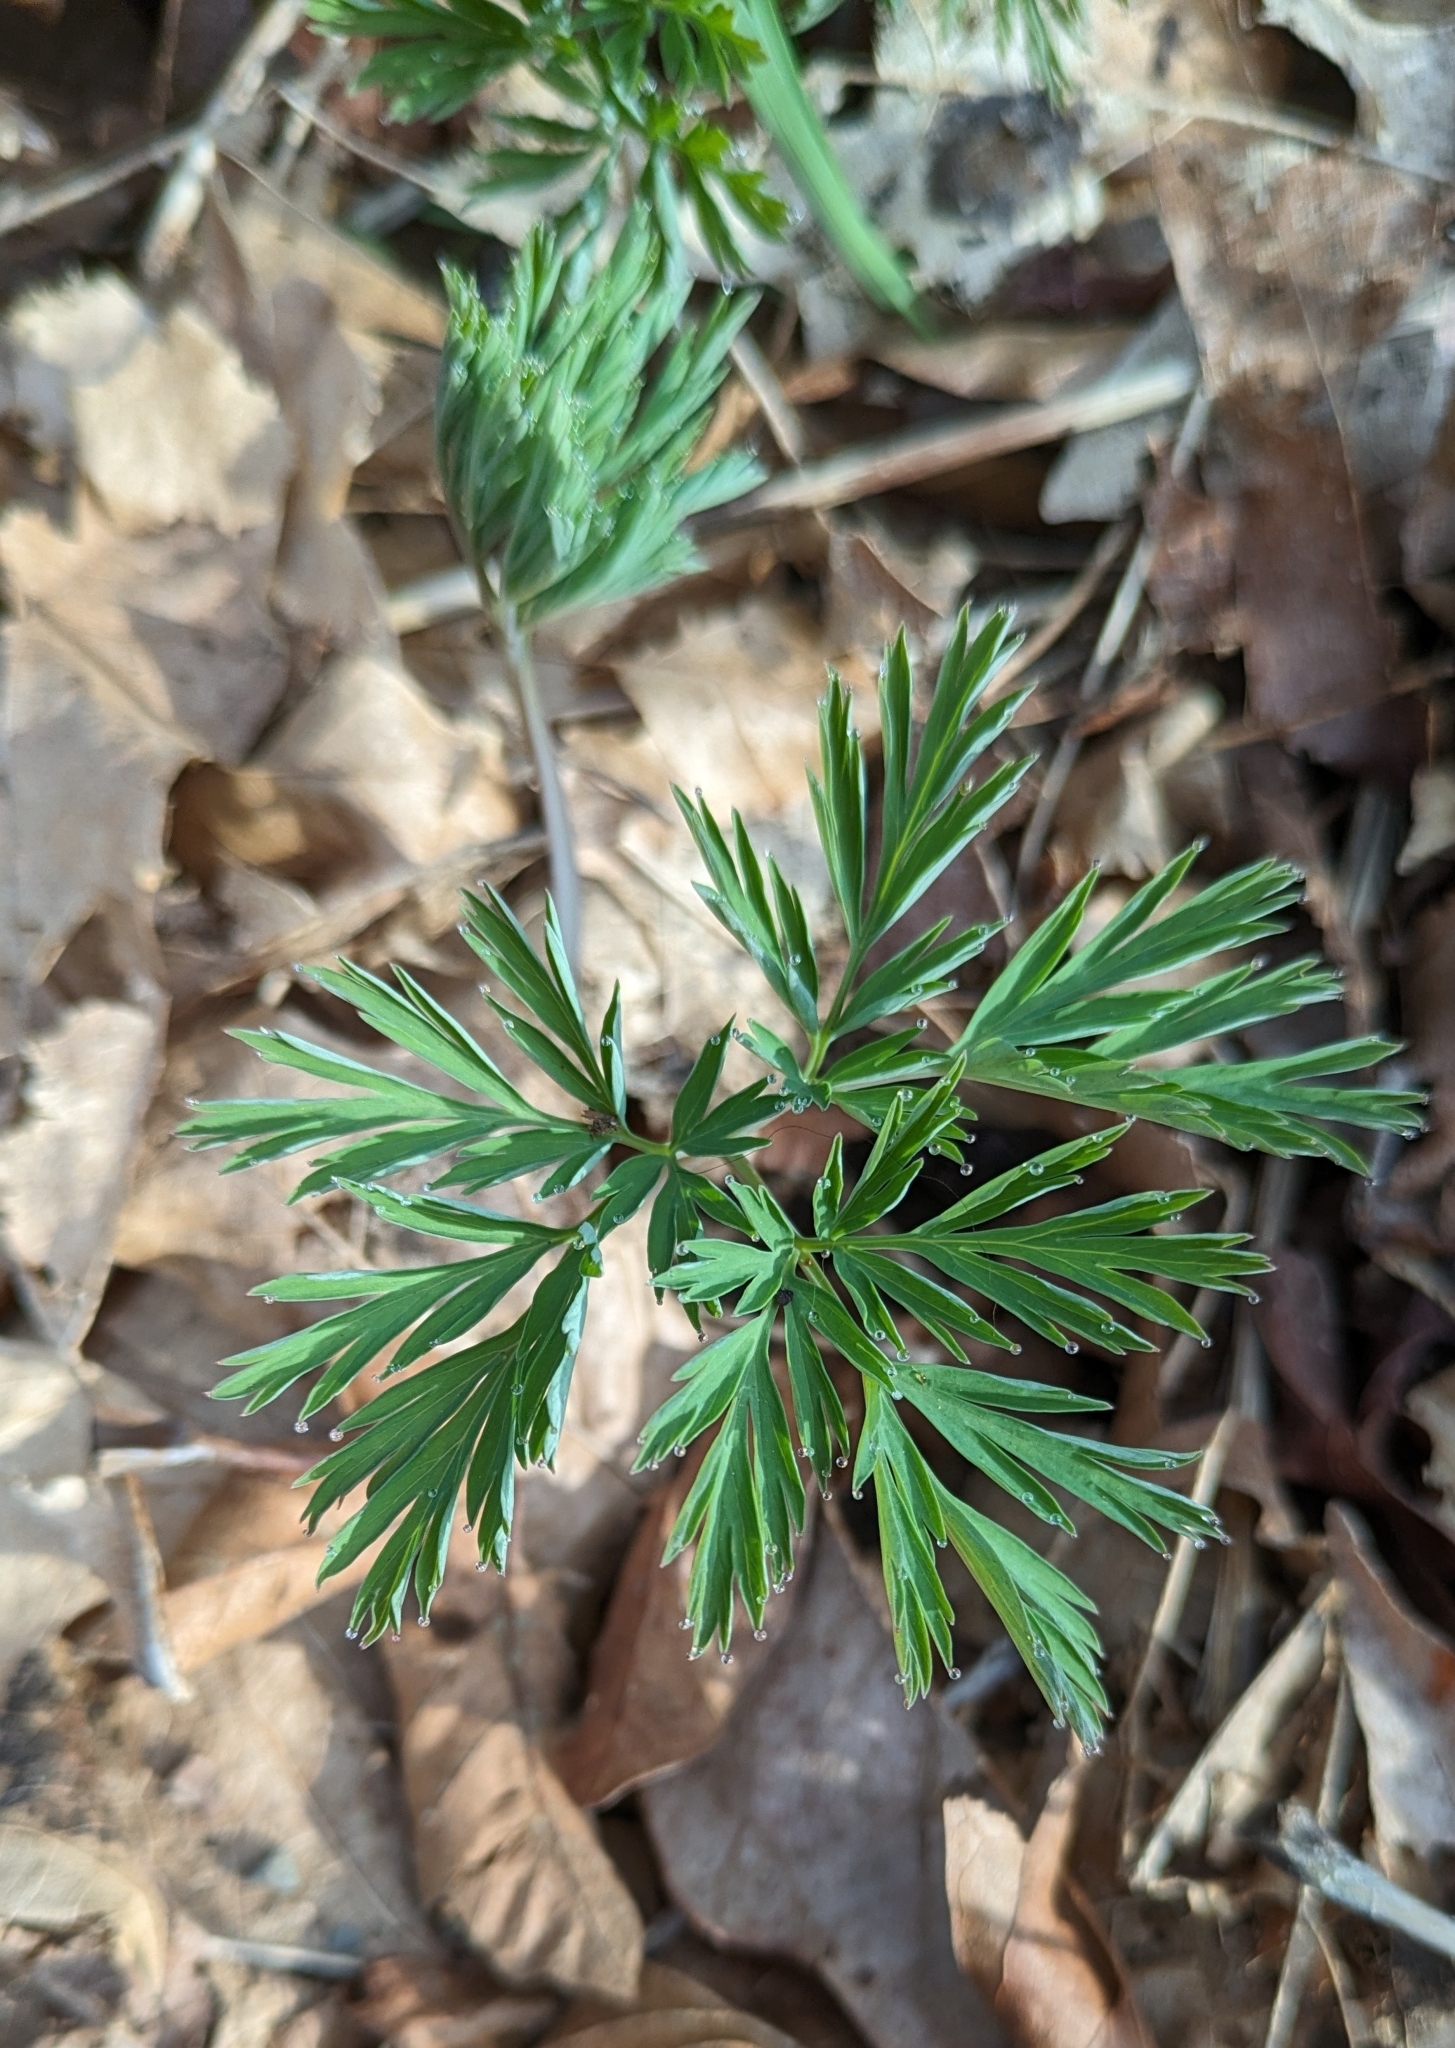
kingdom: Plantae
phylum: Tracheophyta
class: Magnoliopsida
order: Ranunculales
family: Papaveraceae
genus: Dicentra
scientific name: Dicentra formosa
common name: Bleeding-heart
